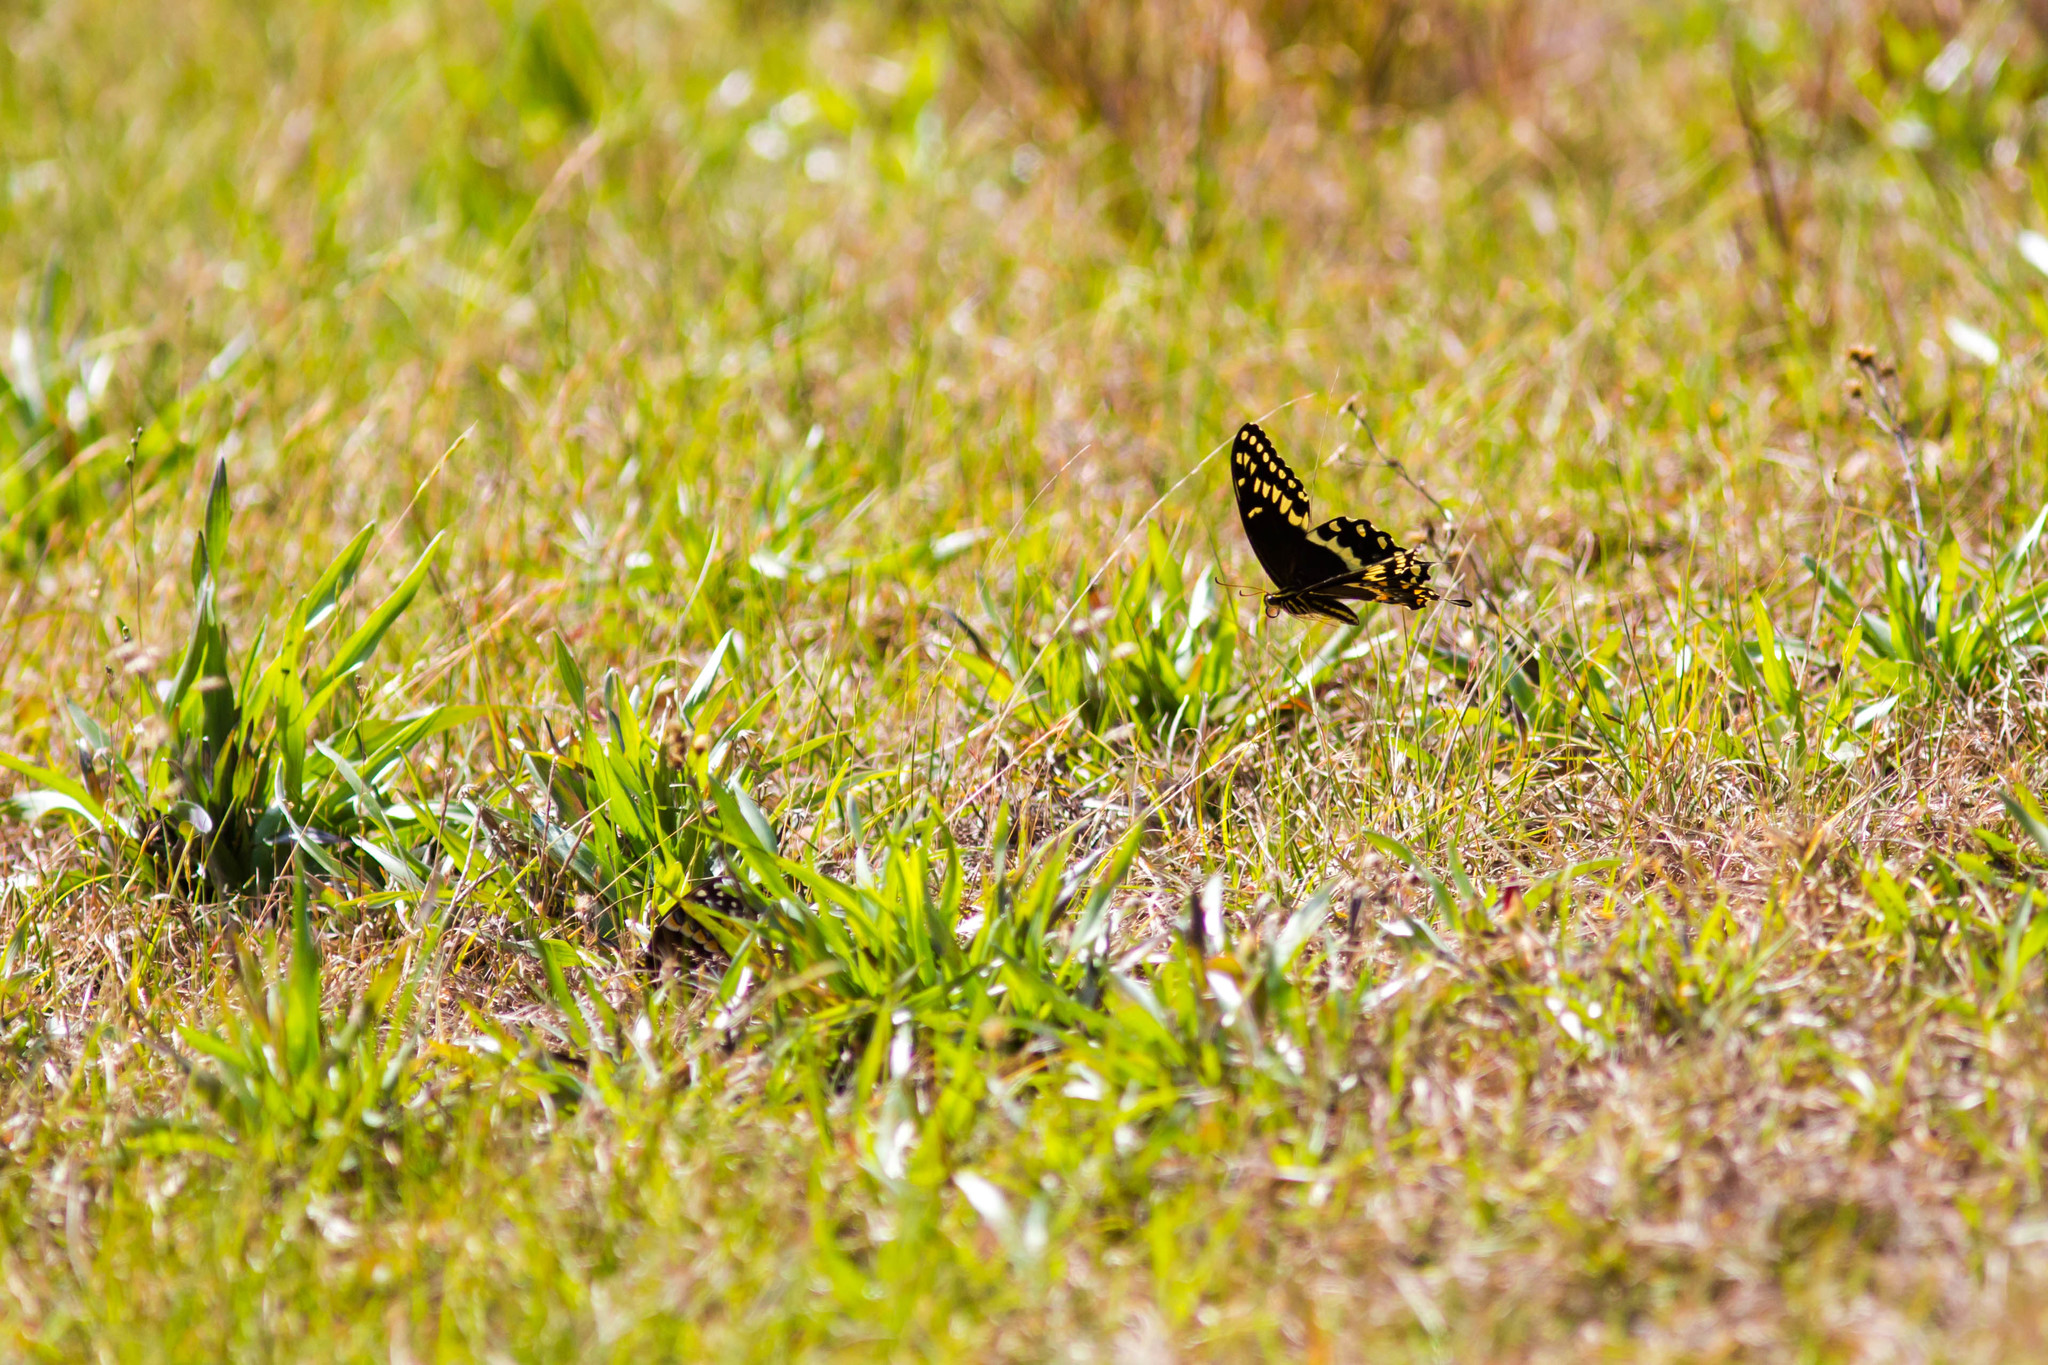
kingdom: Animalia
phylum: Arthropoda
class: Insecta
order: Lepidoptera
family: Papilionidae
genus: Papilio
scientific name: Papilio palamedes
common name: Palamedes swallowtail
